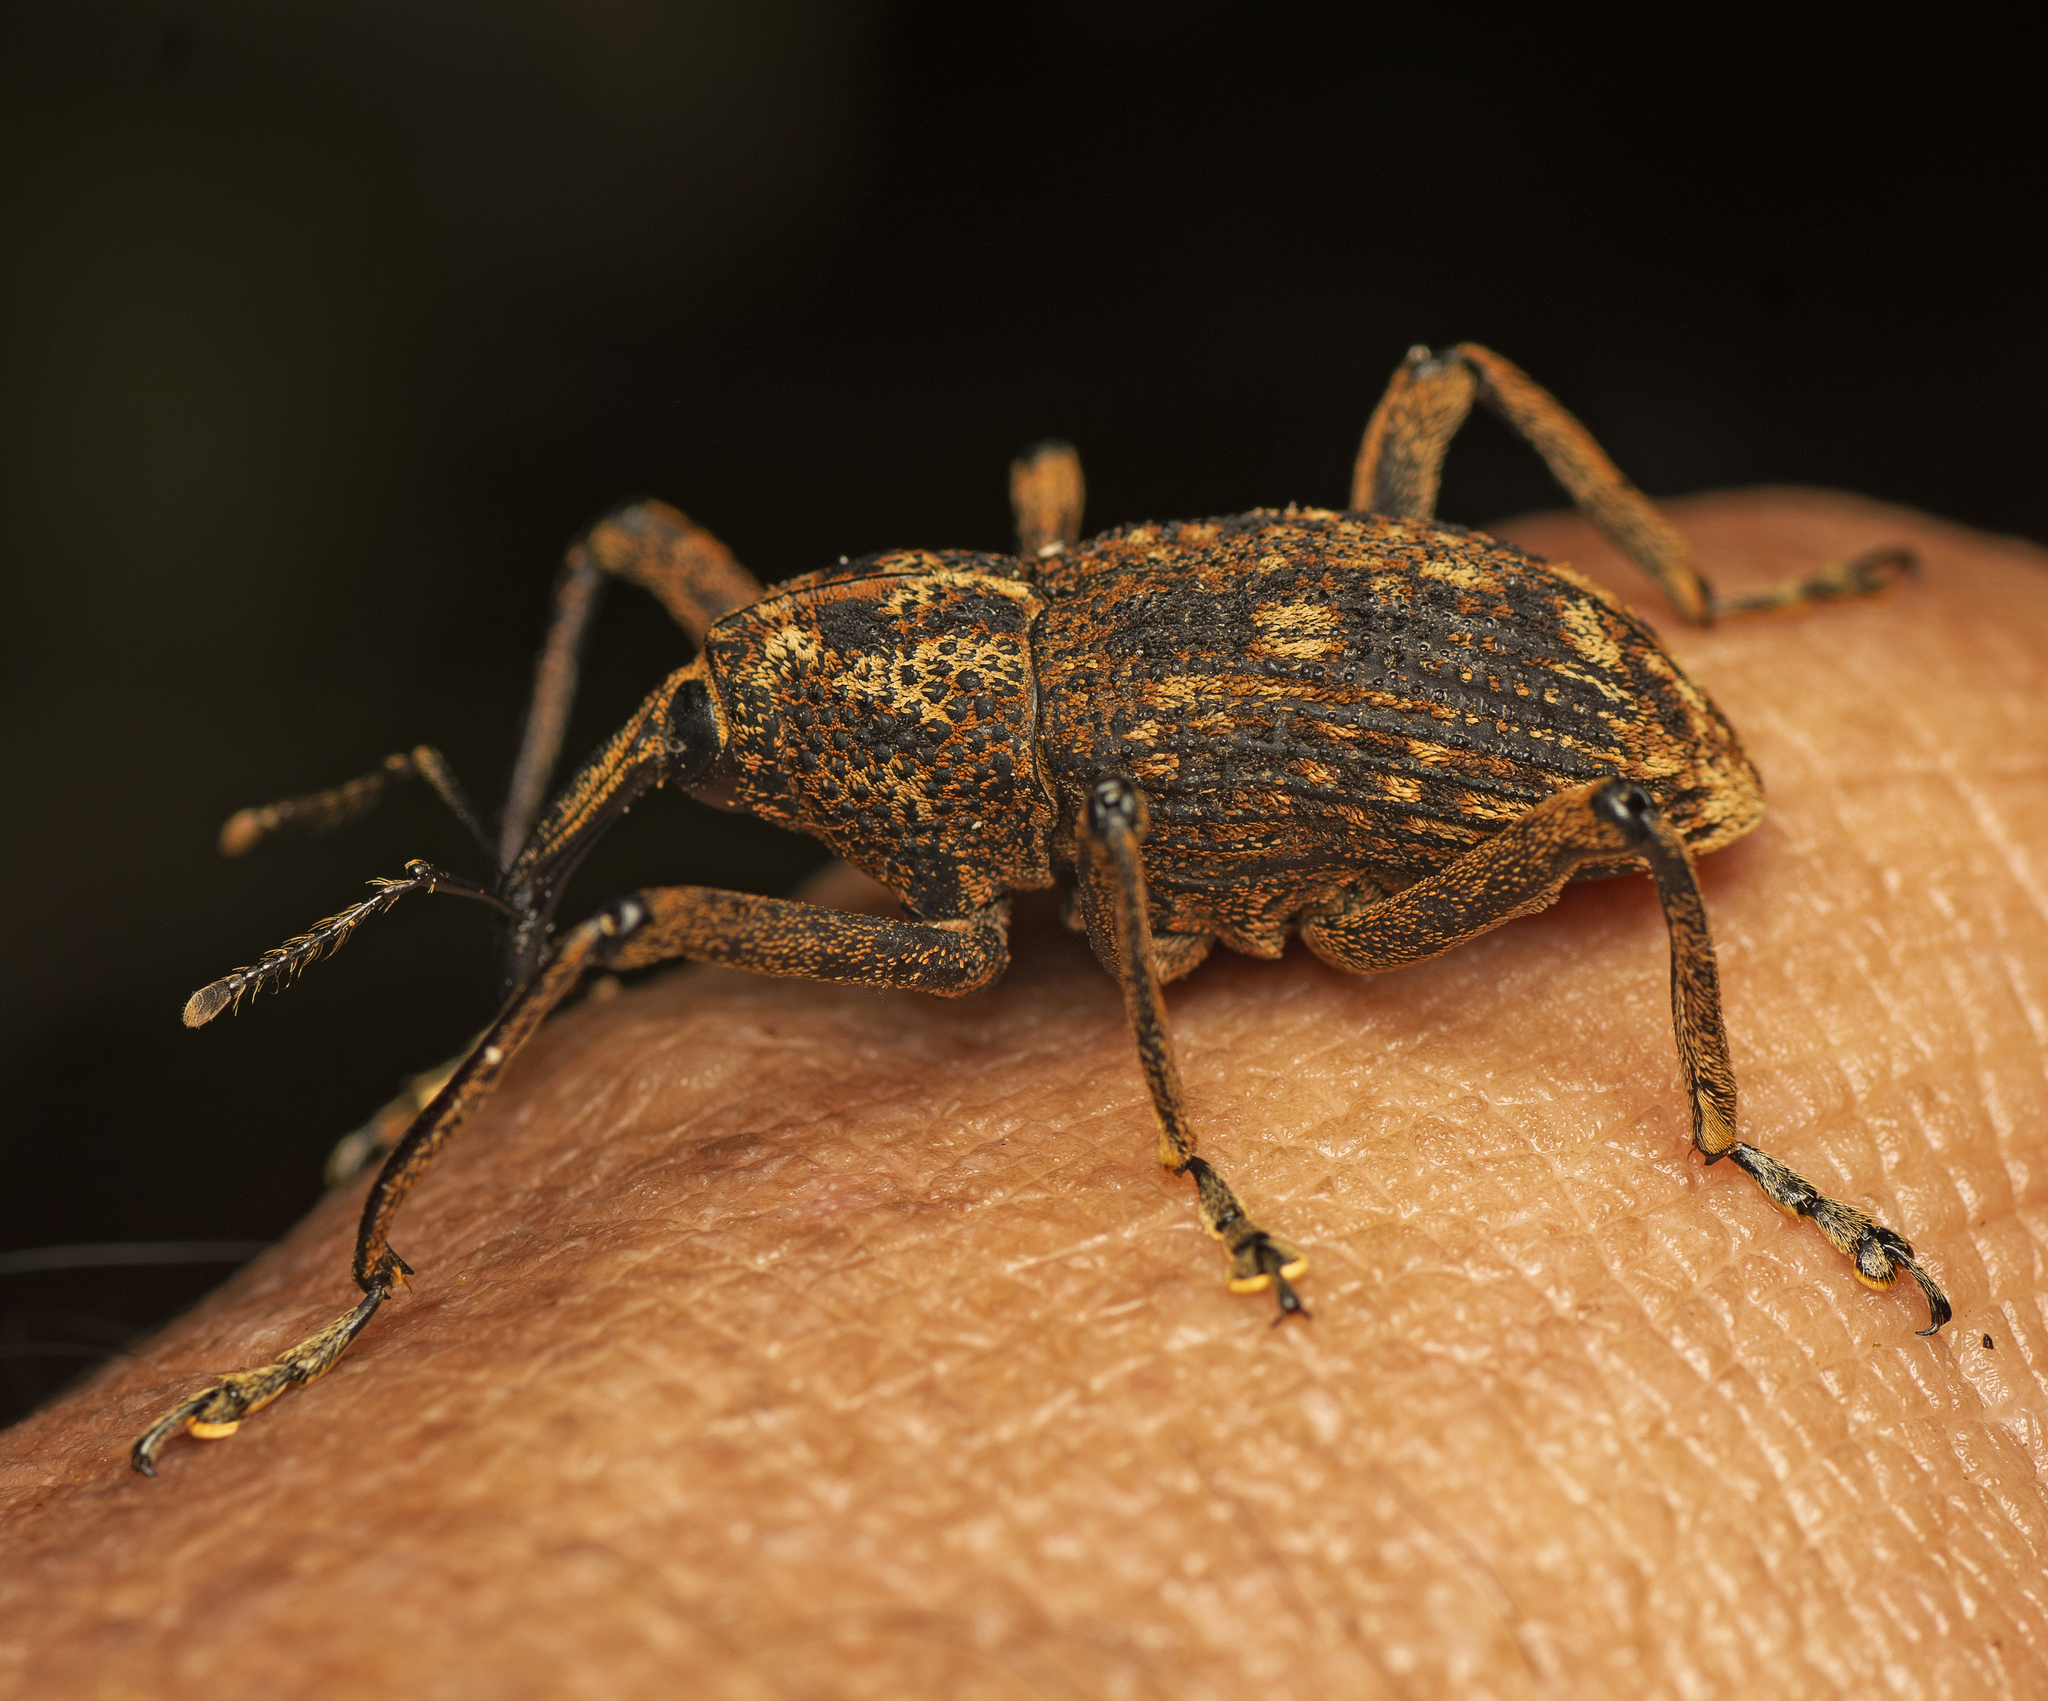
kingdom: Animalia
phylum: Arthropoda
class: Insecta
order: Coleoptera
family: Curculionidae
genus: Dysopirhinus
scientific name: Dysopirhinus grandis
